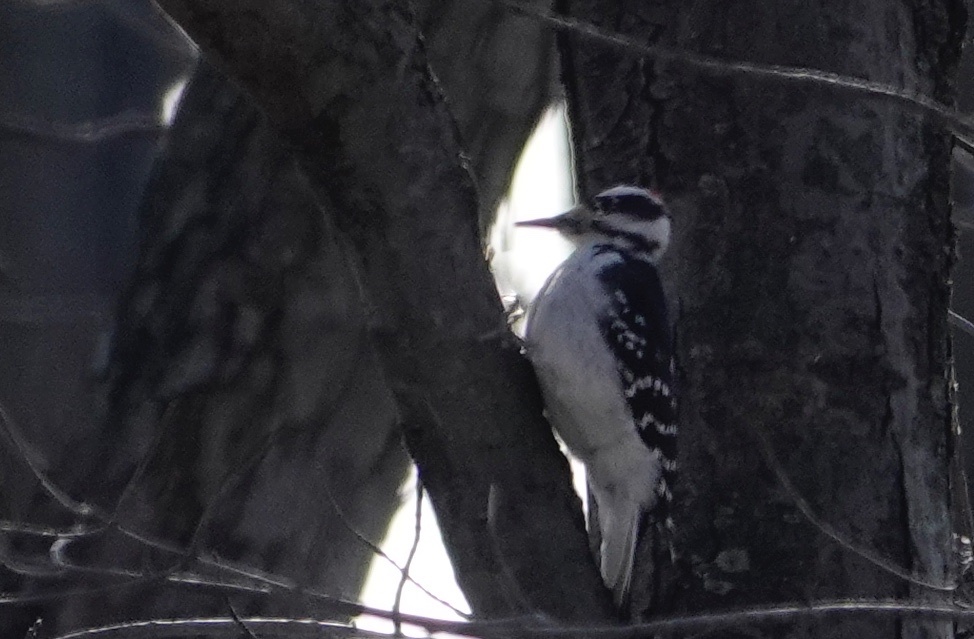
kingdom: Animalia
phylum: Chordata
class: Aves
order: Piciformes
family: Picidae
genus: Leuconotopicus
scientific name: Leuconotopicus villosus
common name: Hairy woodpecker
